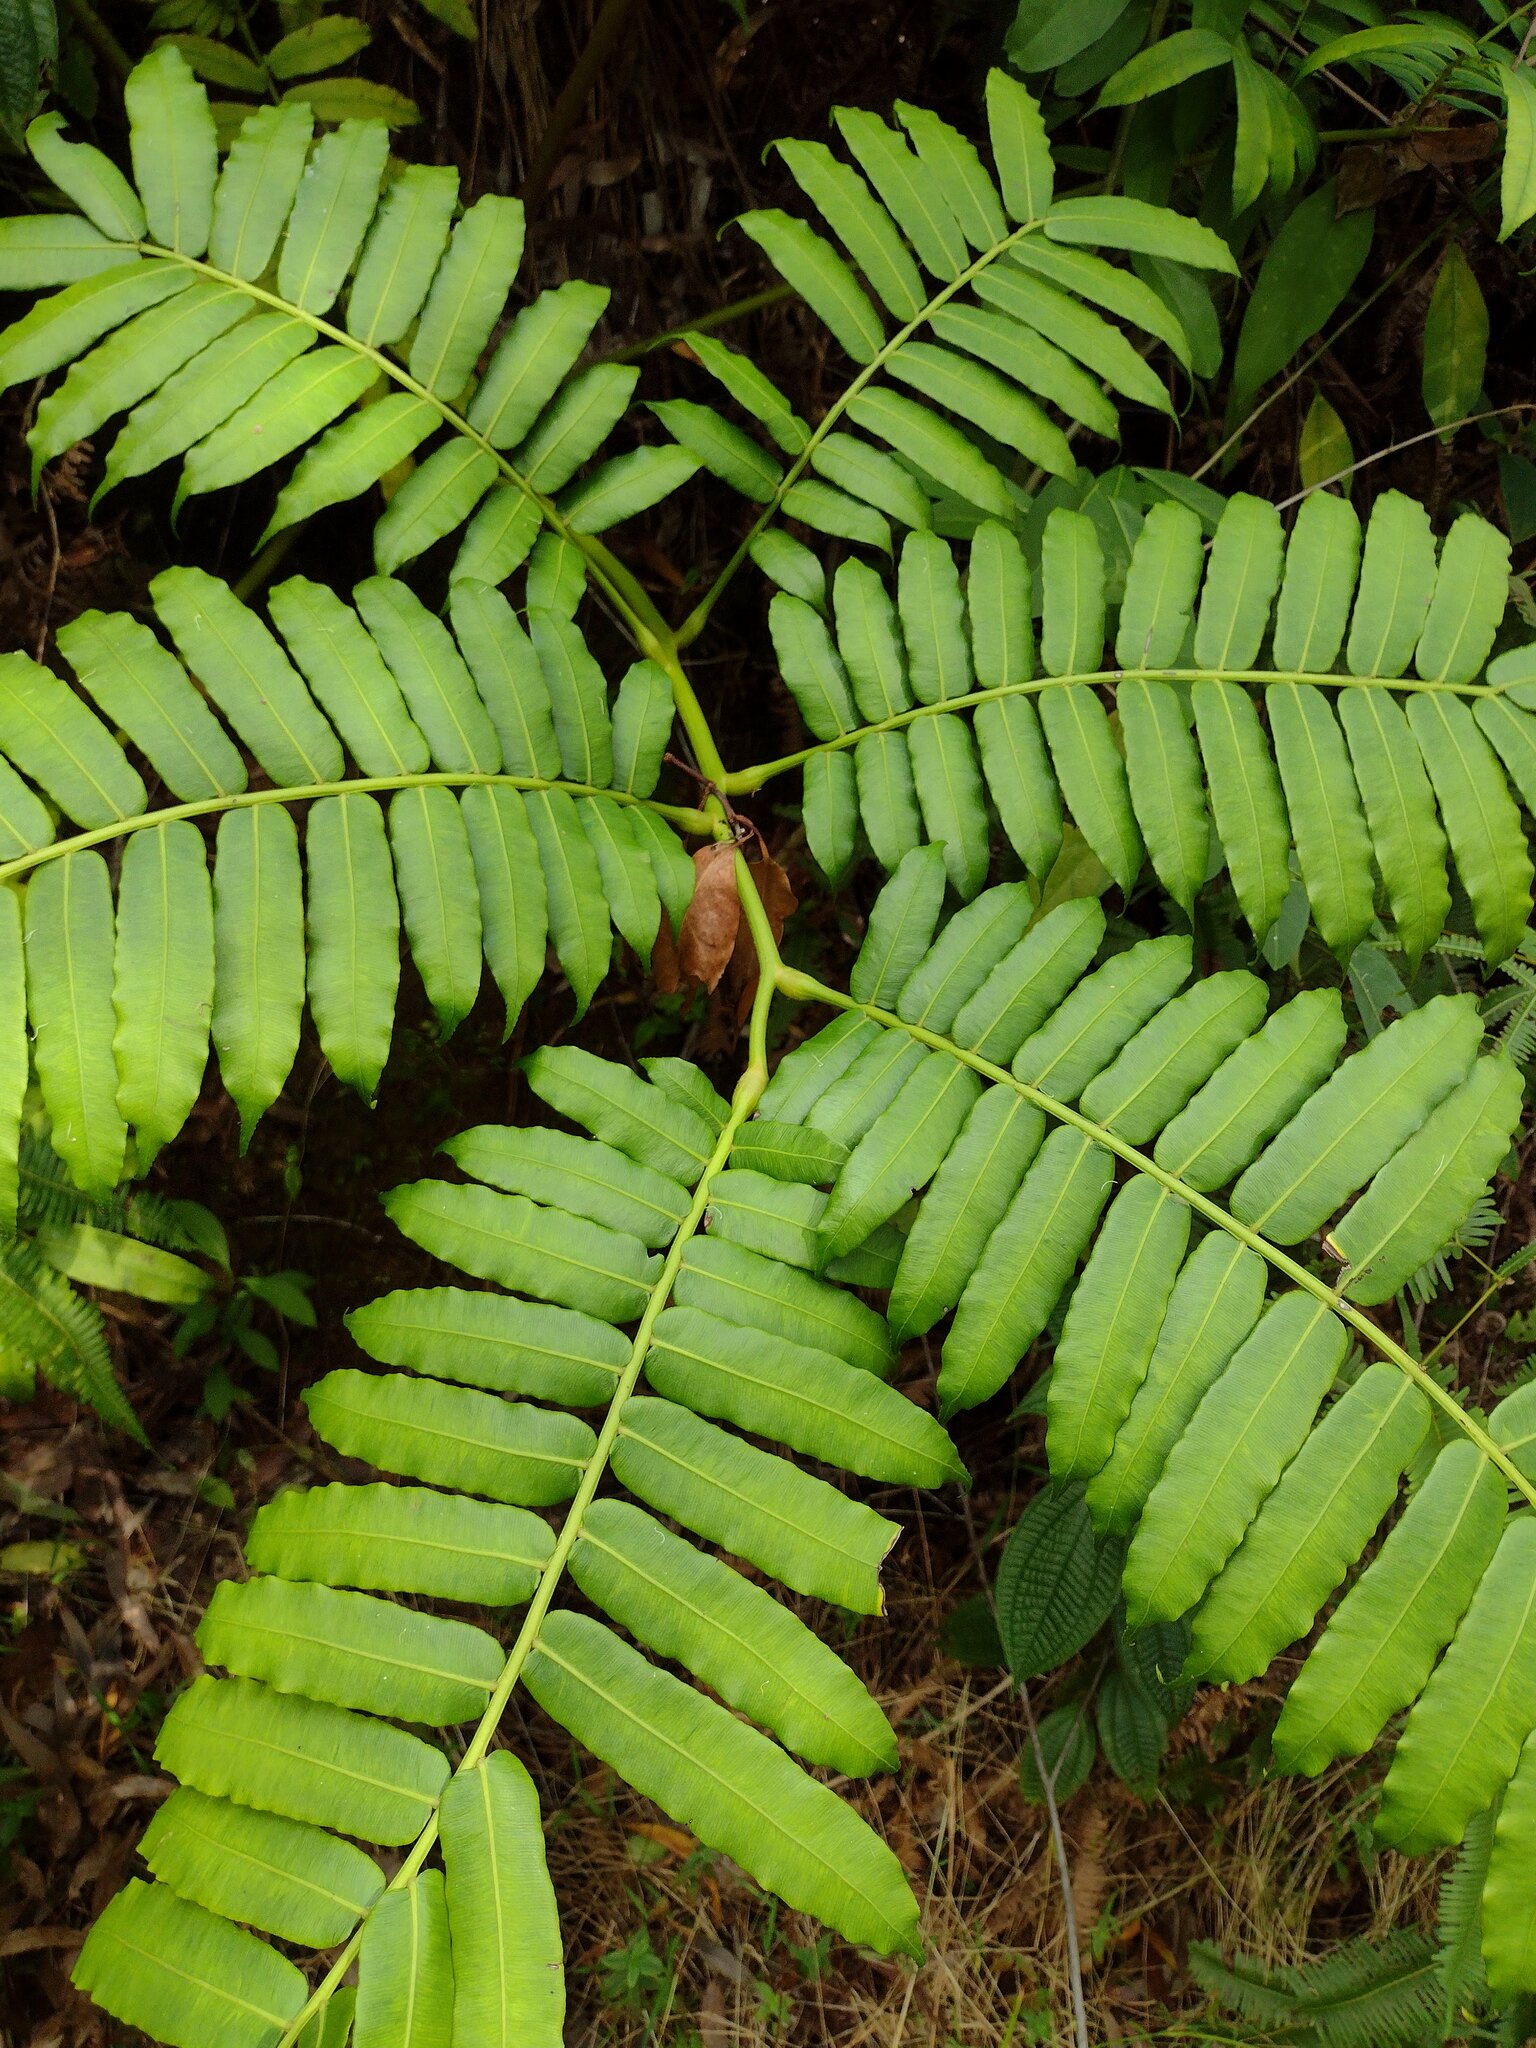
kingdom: Plantae
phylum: Tracheophyta
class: Polypodiopsida
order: Marattiales
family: Marattiaceae
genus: Angiopteris
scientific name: Angiopteris evecta
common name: Mule's-foot fern
